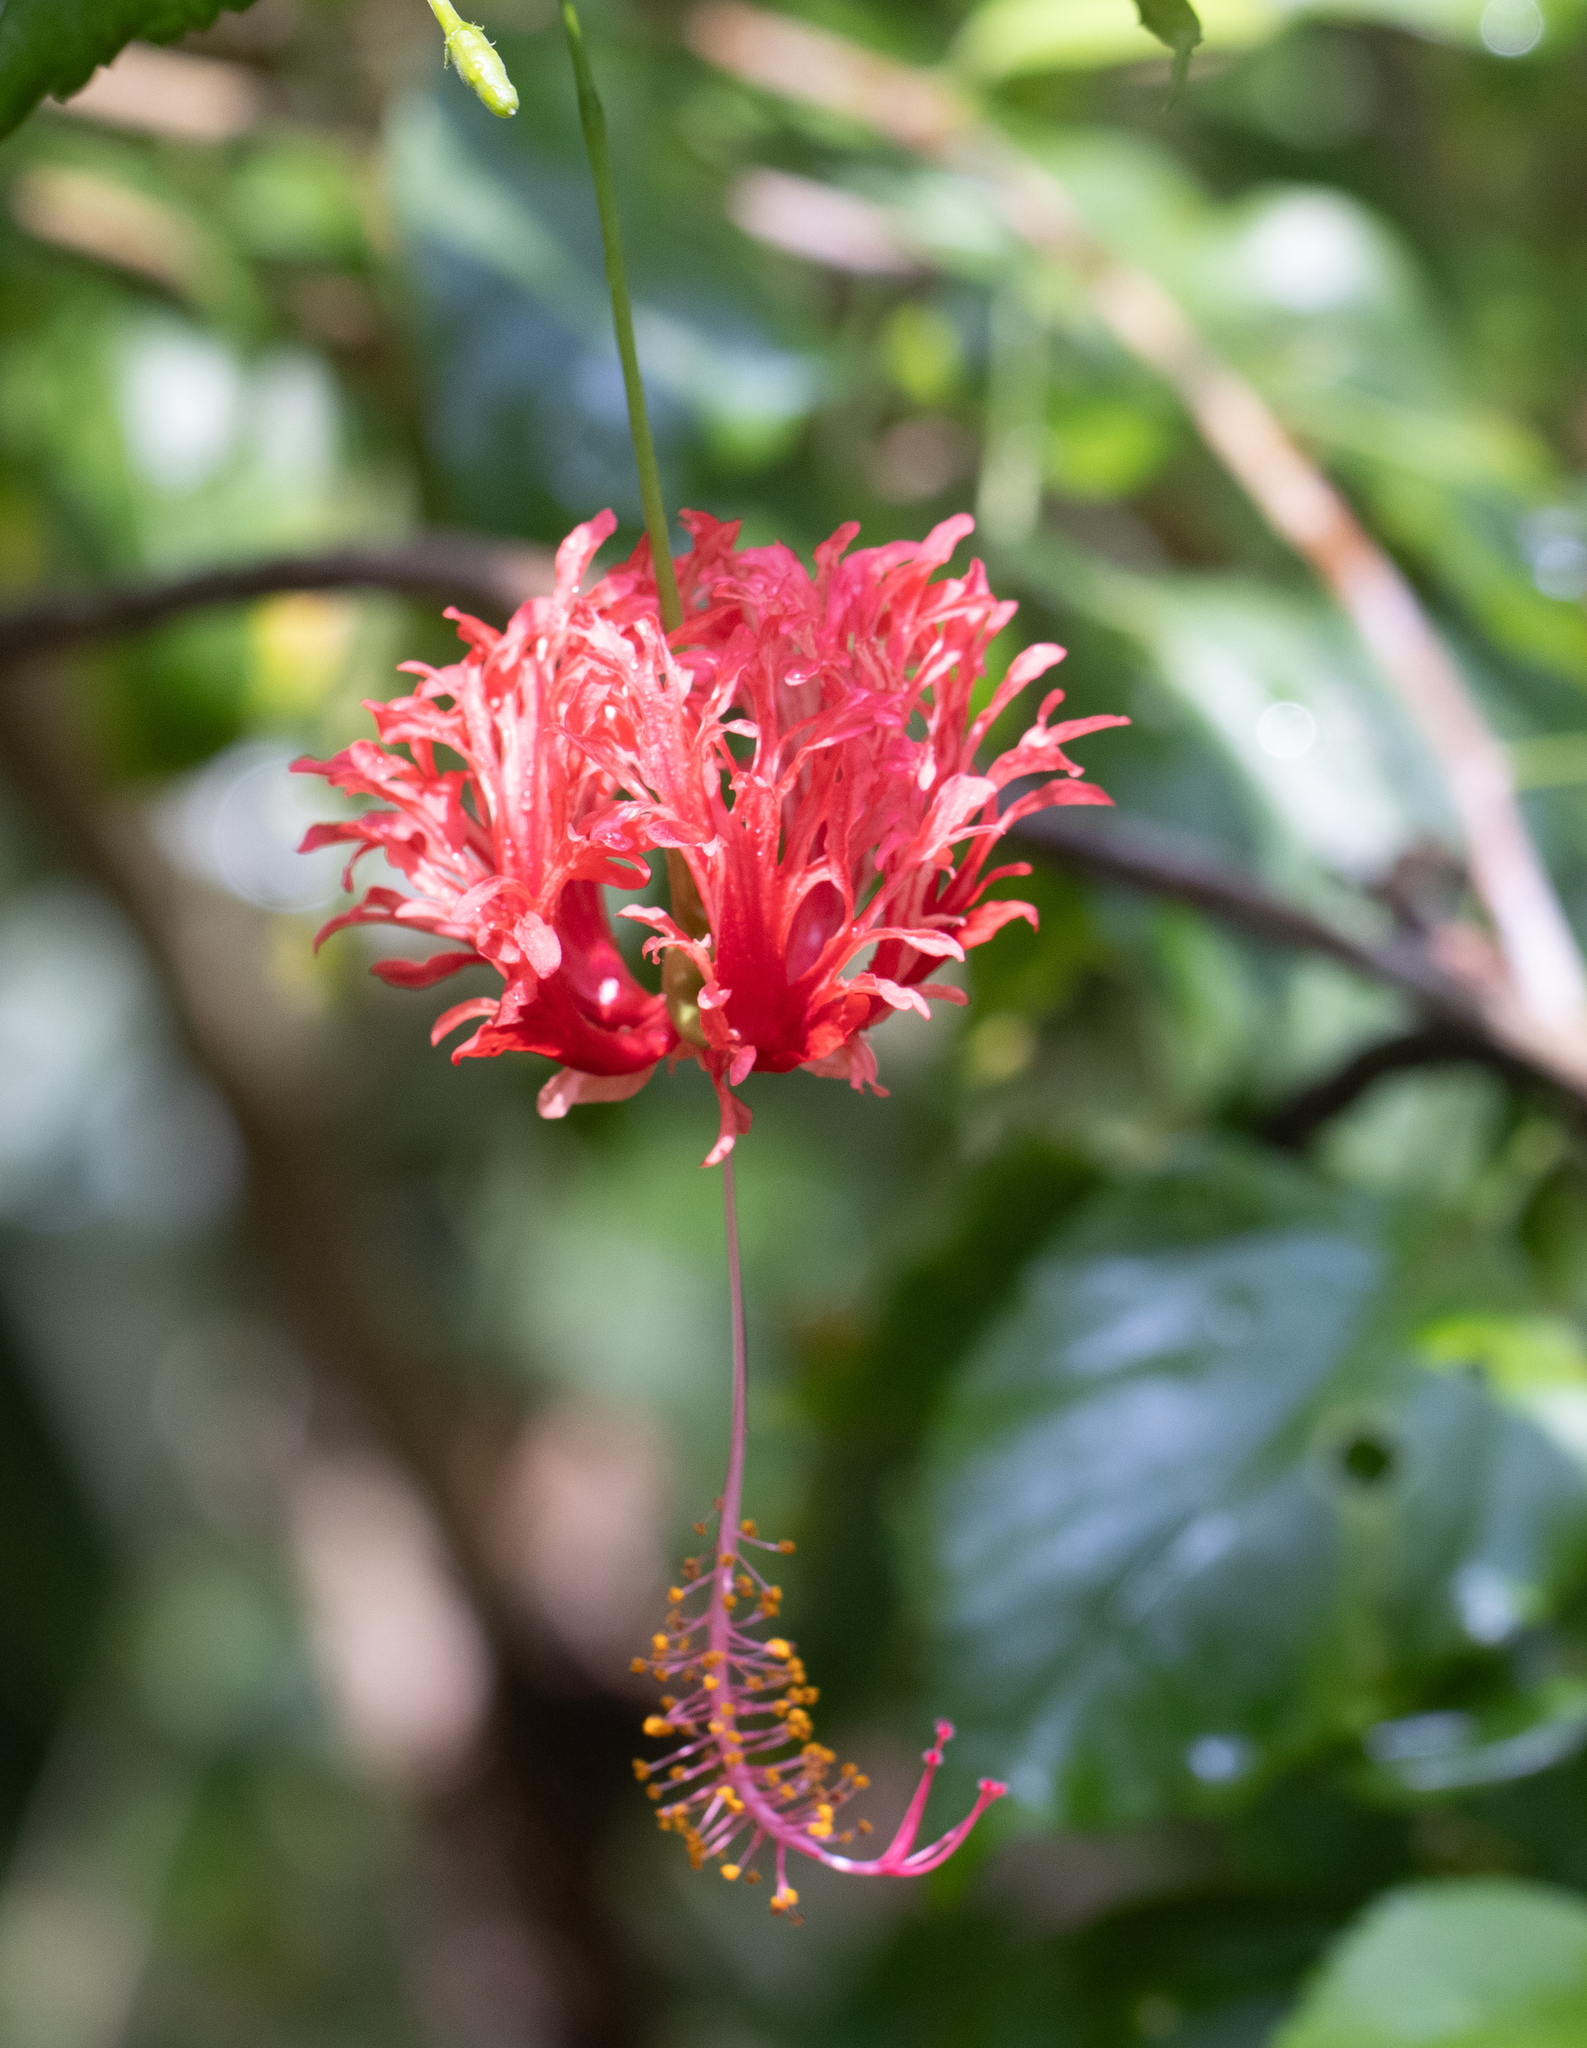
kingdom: Plantae
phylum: Tracheophyta
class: Magnoliopsida
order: Malvales
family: Malvaceae
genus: Hibiscus
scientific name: Hibiscus schizopetalus
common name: Fringed rosemallow
